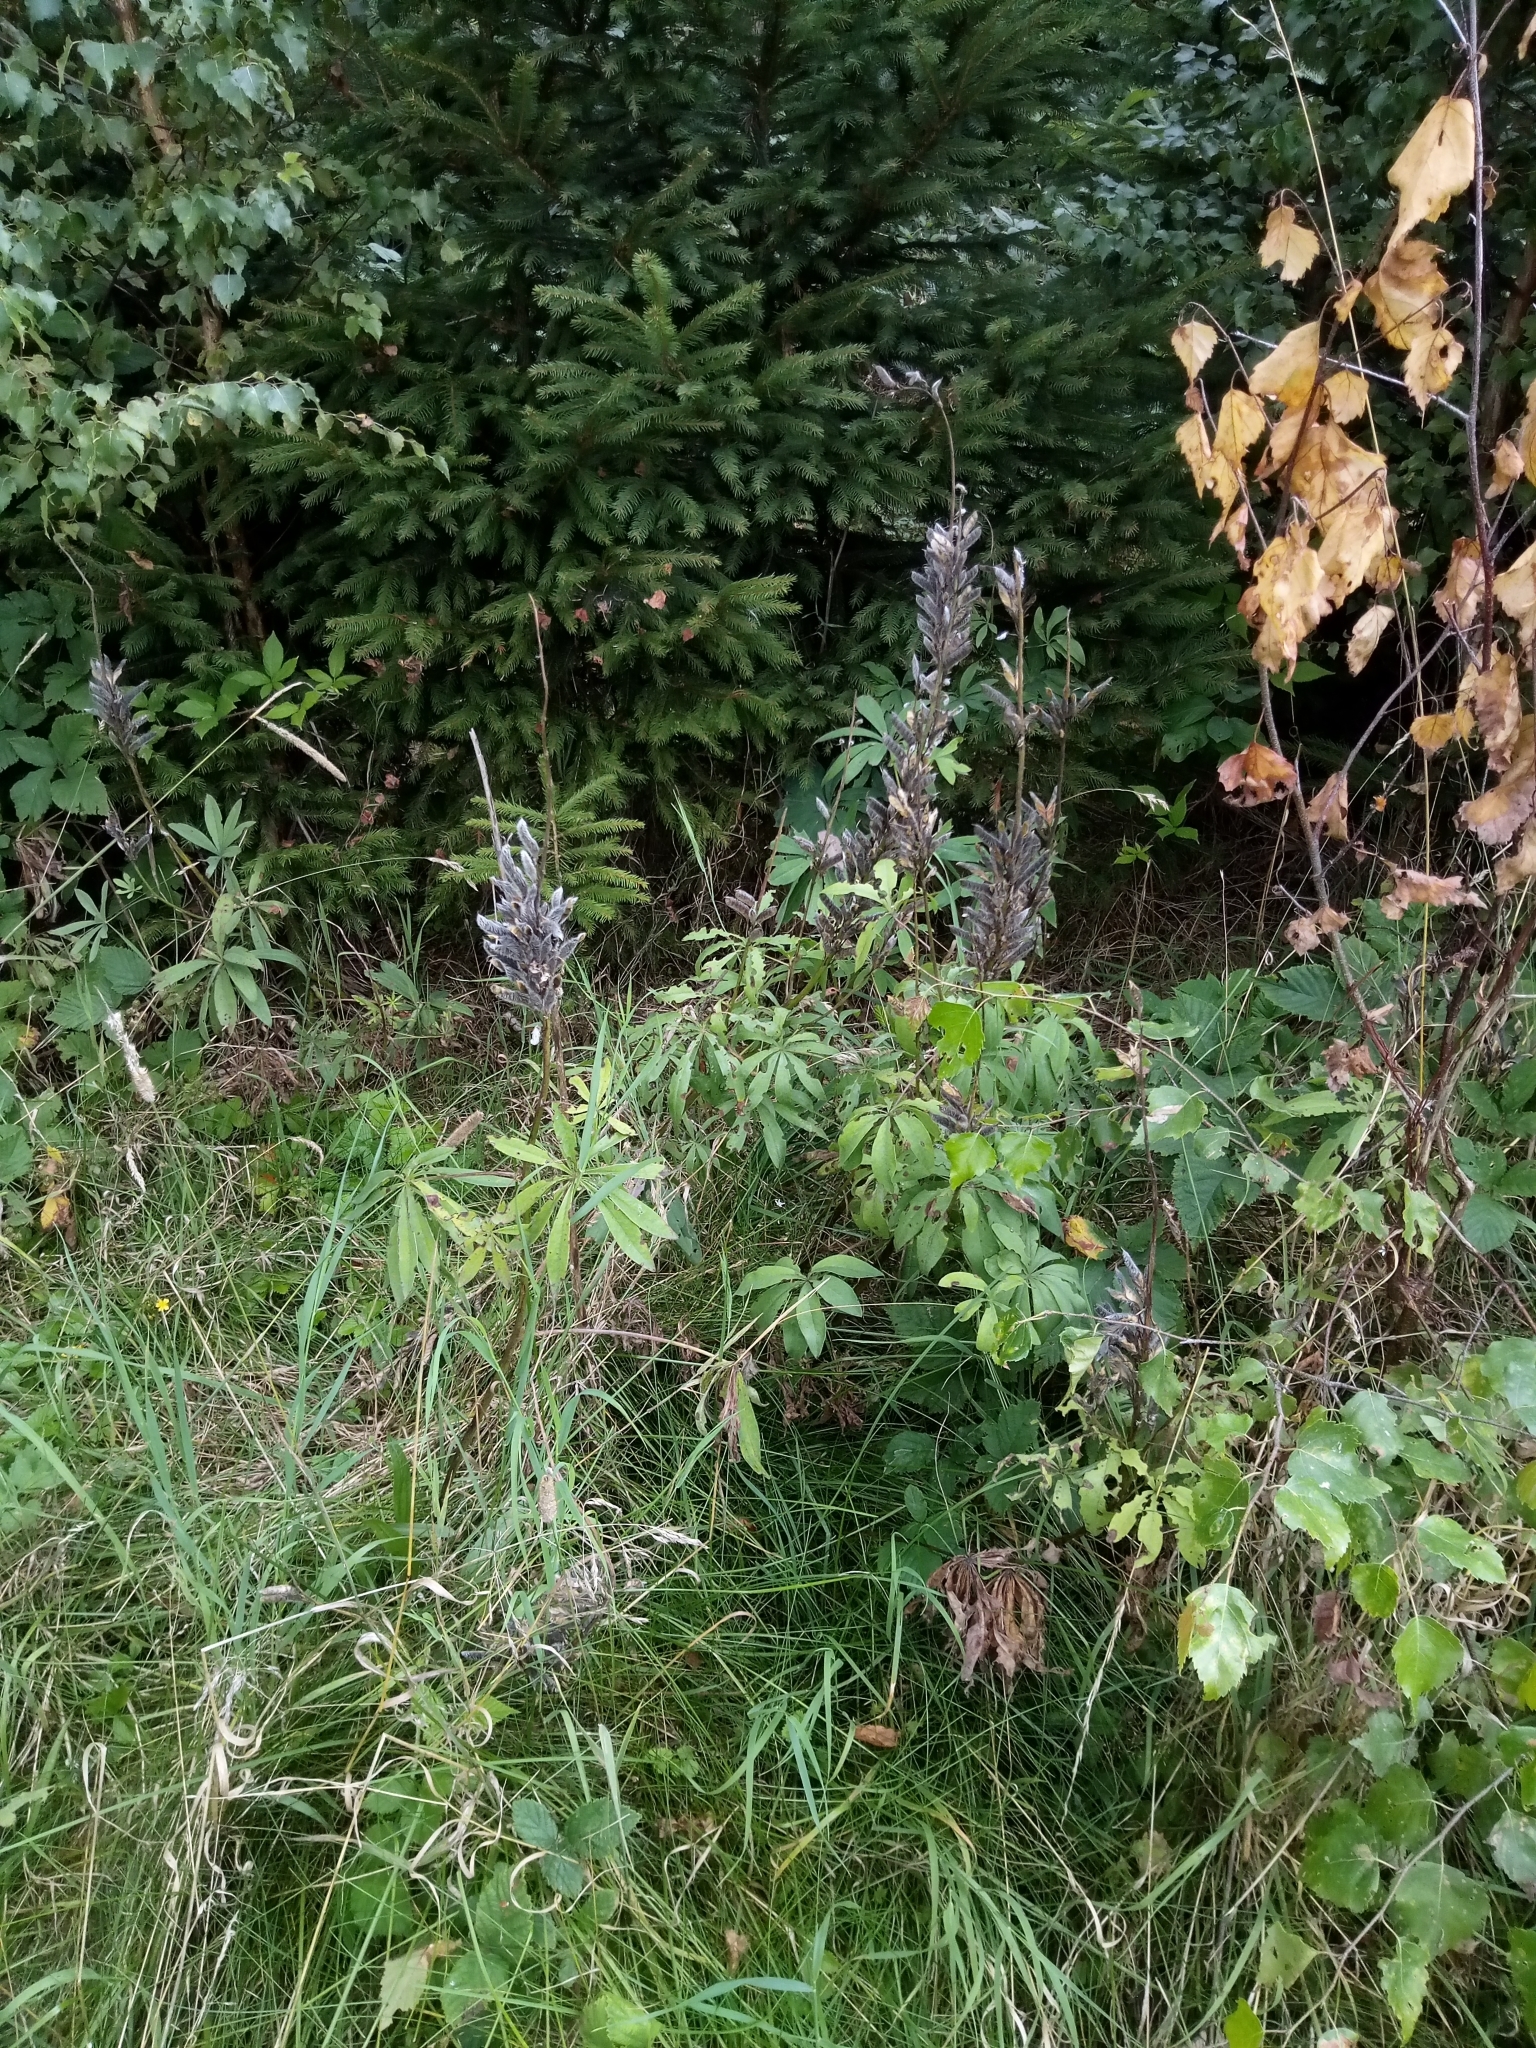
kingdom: Plantae
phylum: Tracheophyta
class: Magnoliopsida
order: Fabales
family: Fabaceae
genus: Lupinus
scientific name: Lupinus polyphyllus
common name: Garden lupin
